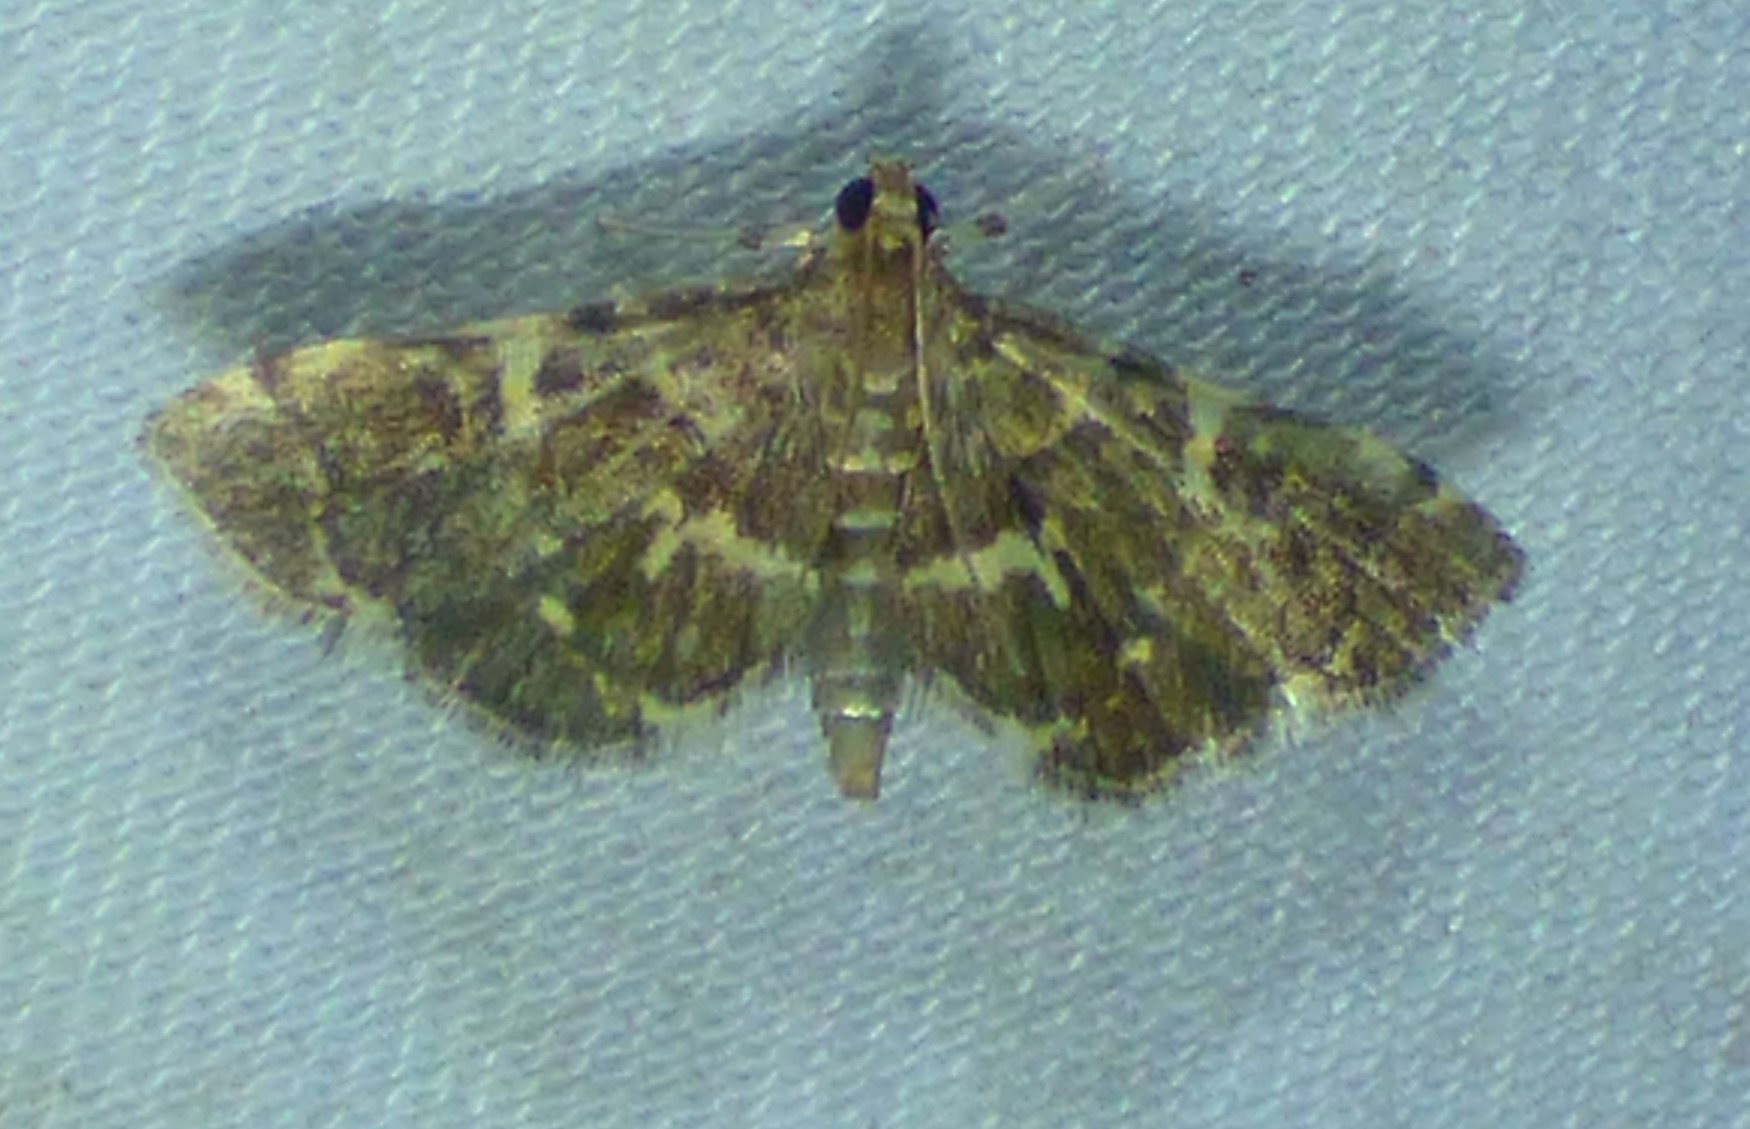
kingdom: Animalia
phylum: Arthropoda
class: Insecta
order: Lepidoptera
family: Crambidae
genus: Anageshna
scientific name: Anageshna primordialis
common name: Yellow-spotted webworm moth
